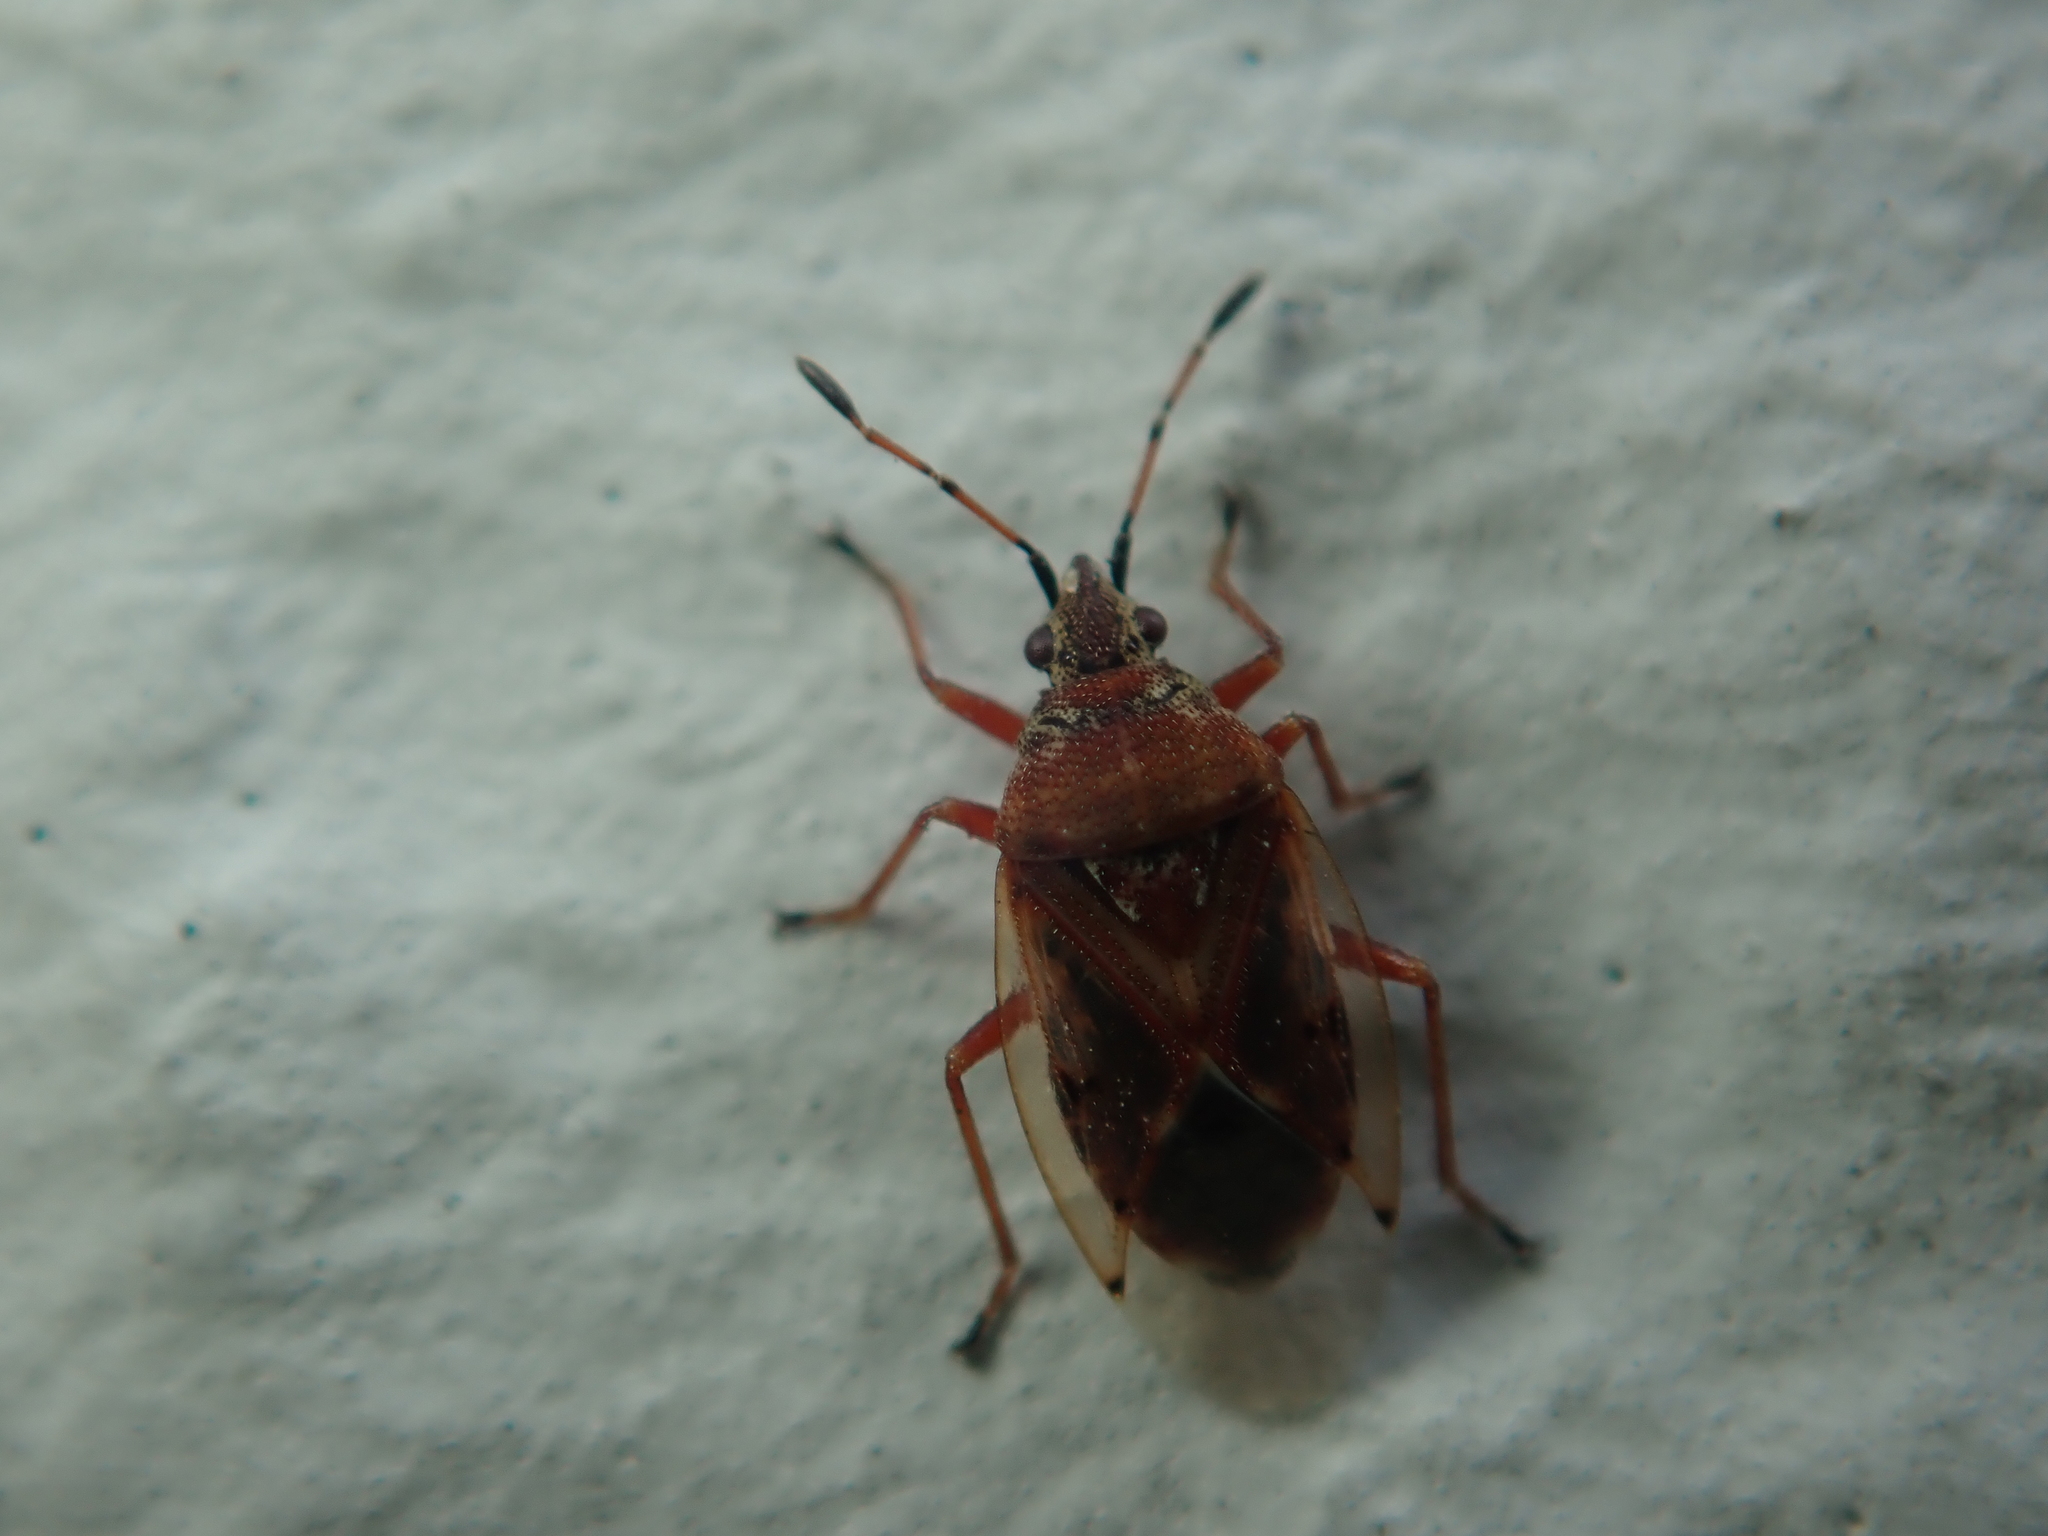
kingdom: Animalia
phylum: Arthropoda
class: Insecta
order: Hemiptera
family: Lygaeidae
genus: Kleidocerys
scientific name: Kleidocerys resedae
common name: Birch catkin bug
